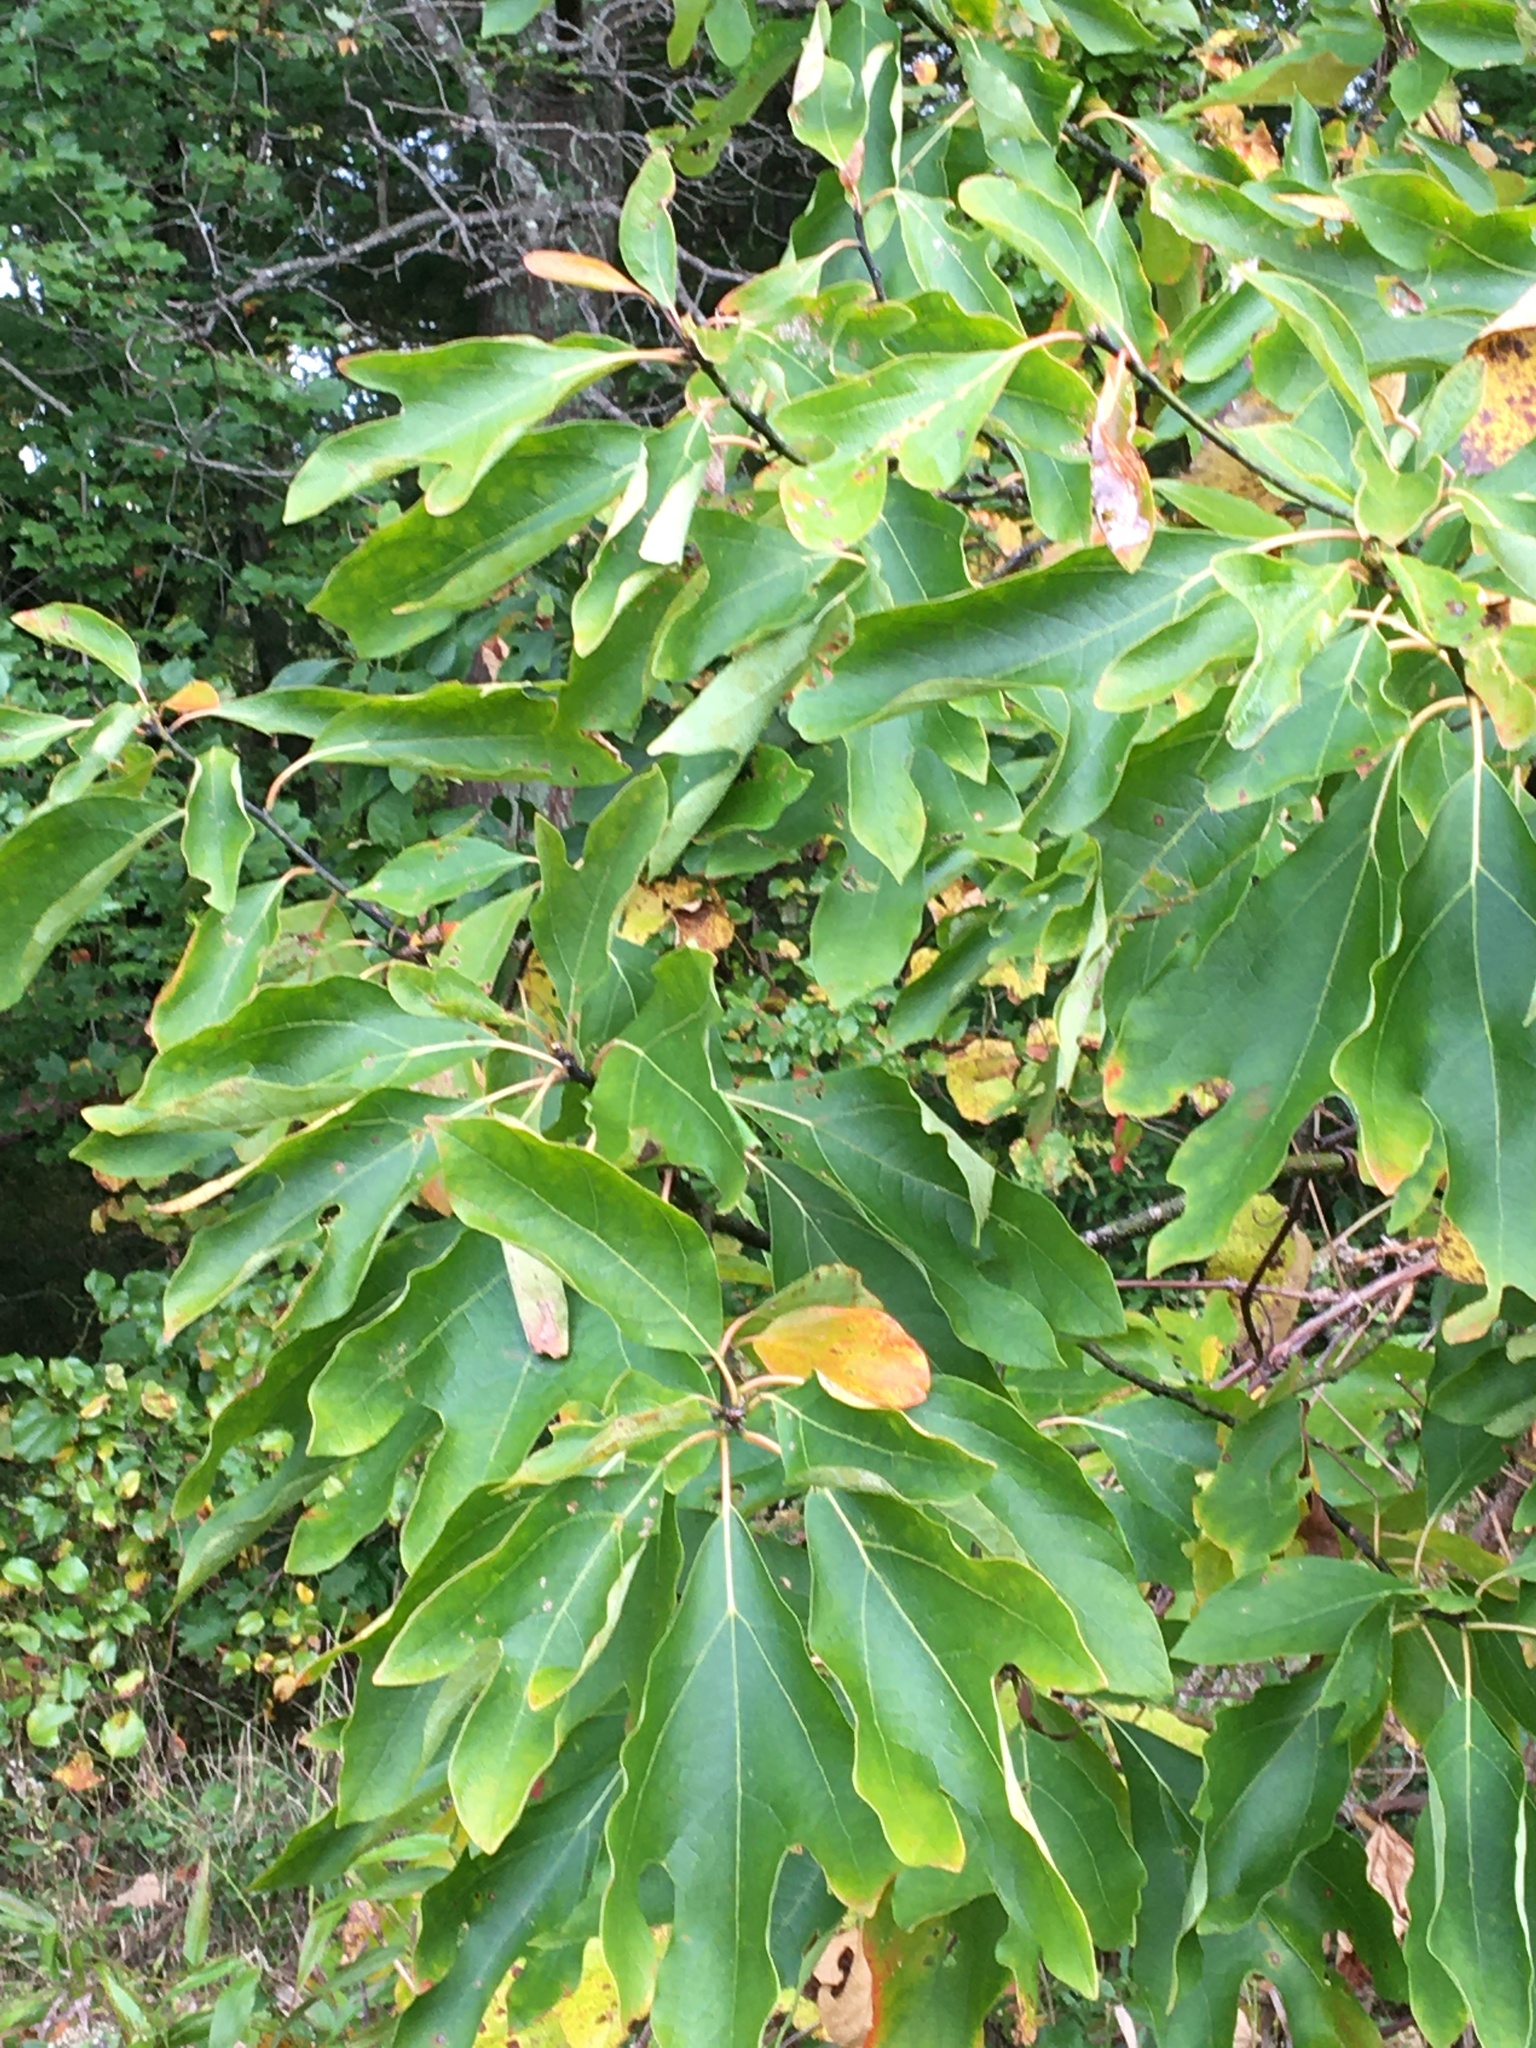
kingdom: Plantae
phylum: Tracheophyta
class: Magnoliopsida
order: Laurales
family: Lauraceae
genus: Sassafras
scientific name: Sassafras albidum
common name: Sassafras
